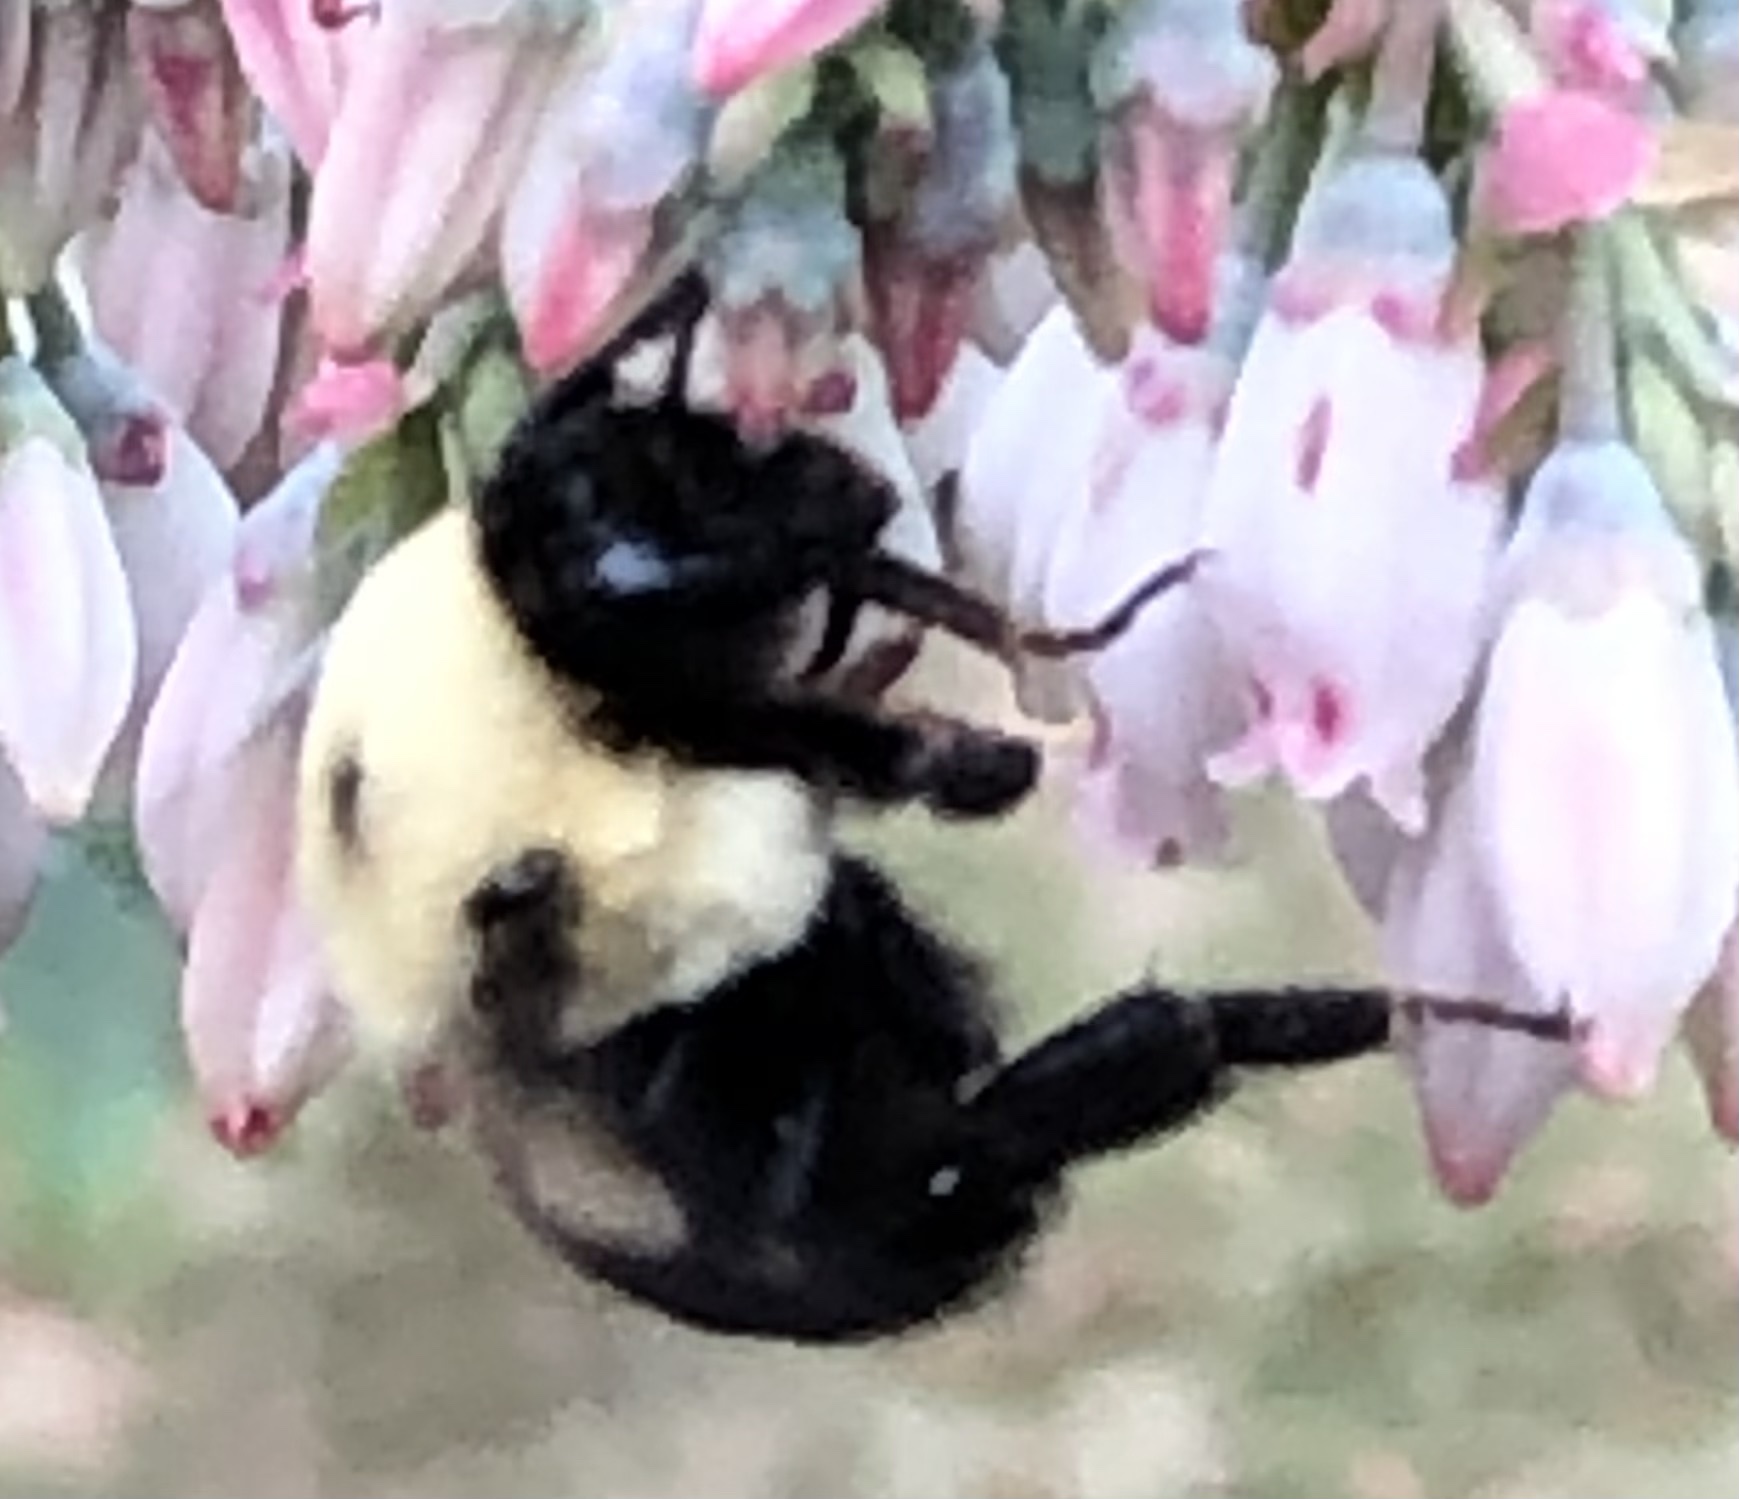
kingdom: Animalia
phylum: Arthropoda
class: Insecta
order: Hymenoptera
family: Apidae
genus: Bombus
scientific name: Bombus griseocollis
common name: Brown-belted bumble bee
